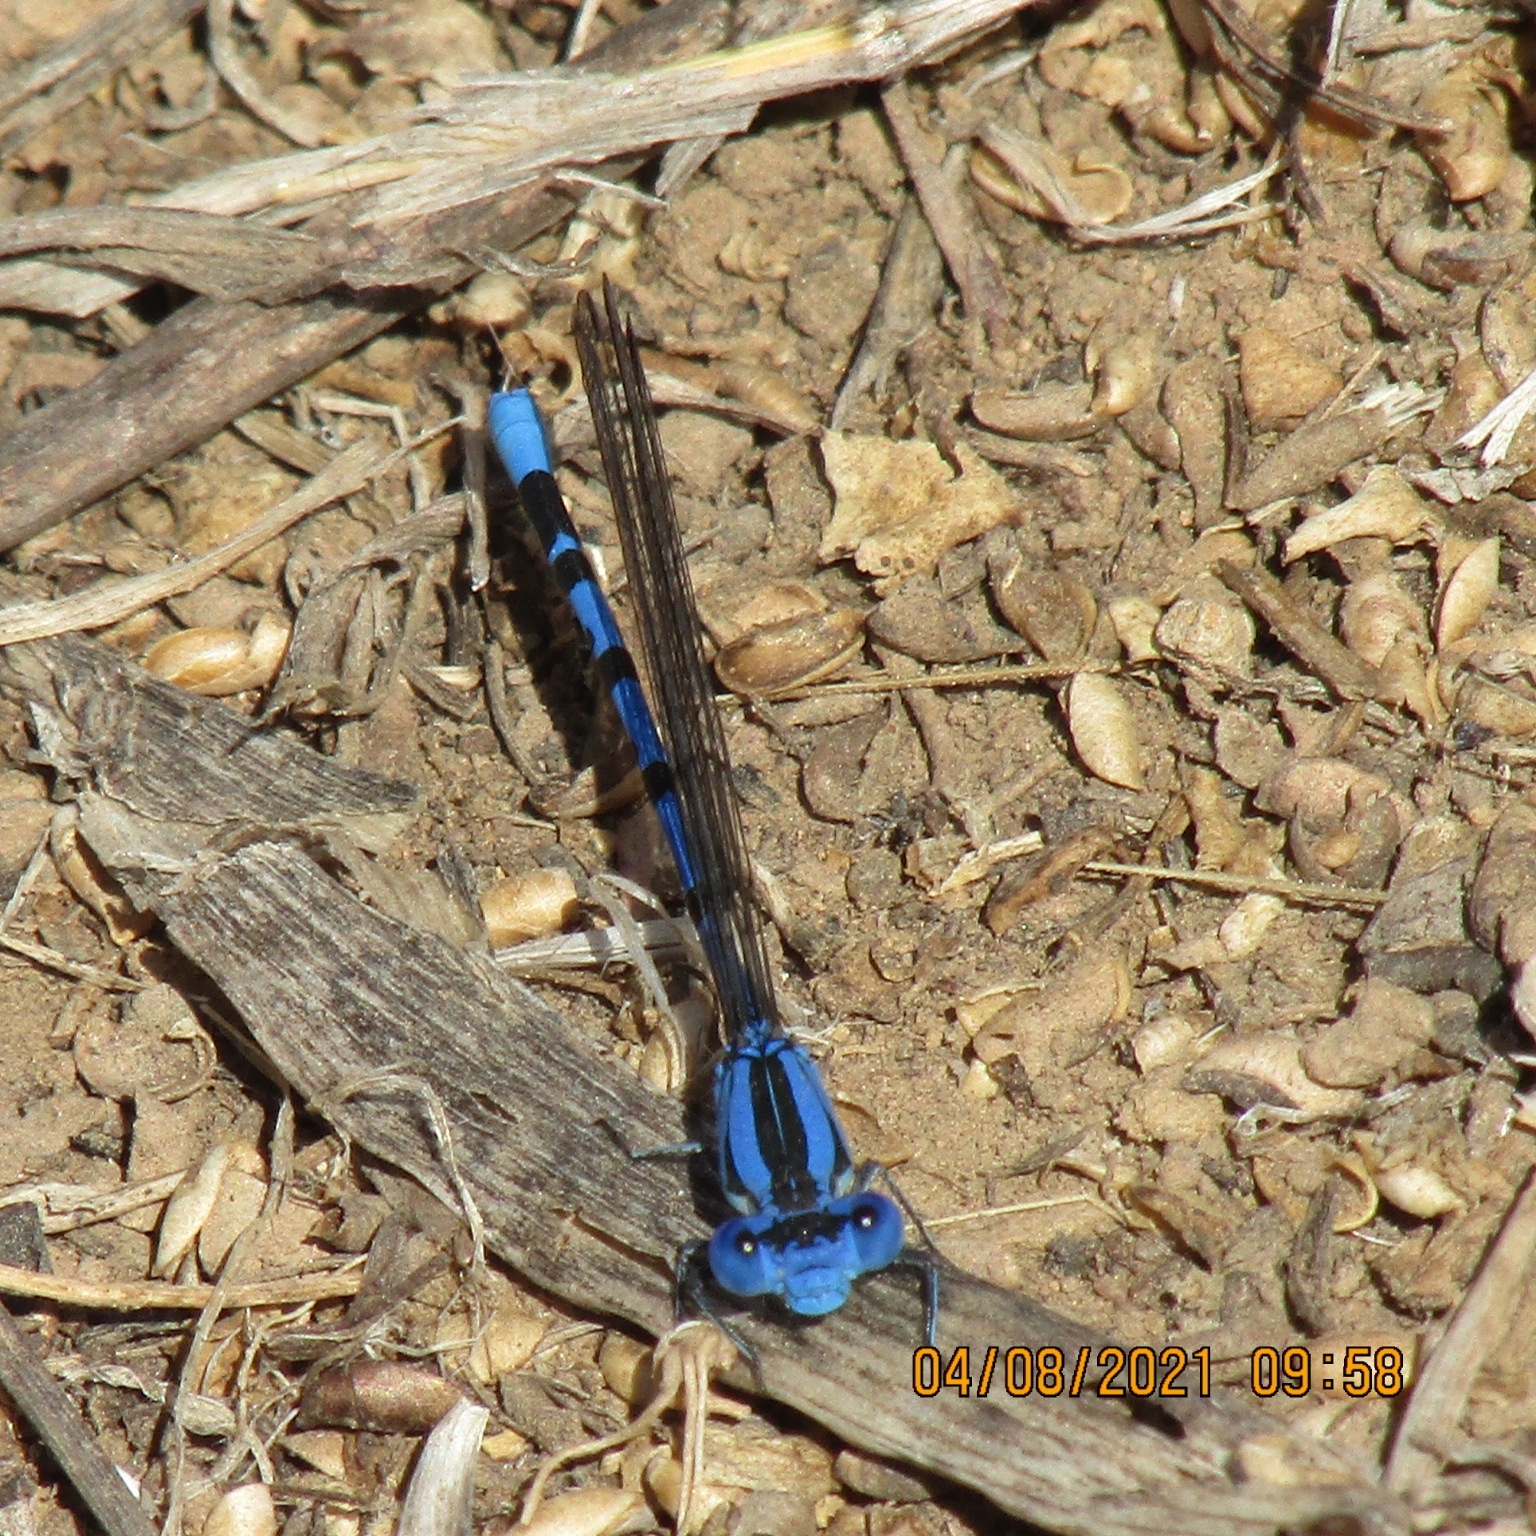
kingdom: Animalia
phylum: Arthropoda
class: Insecta
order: Odonata
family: Coenagrionidae
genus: Argia
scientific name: Argia vivida
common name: Vivid dancer
